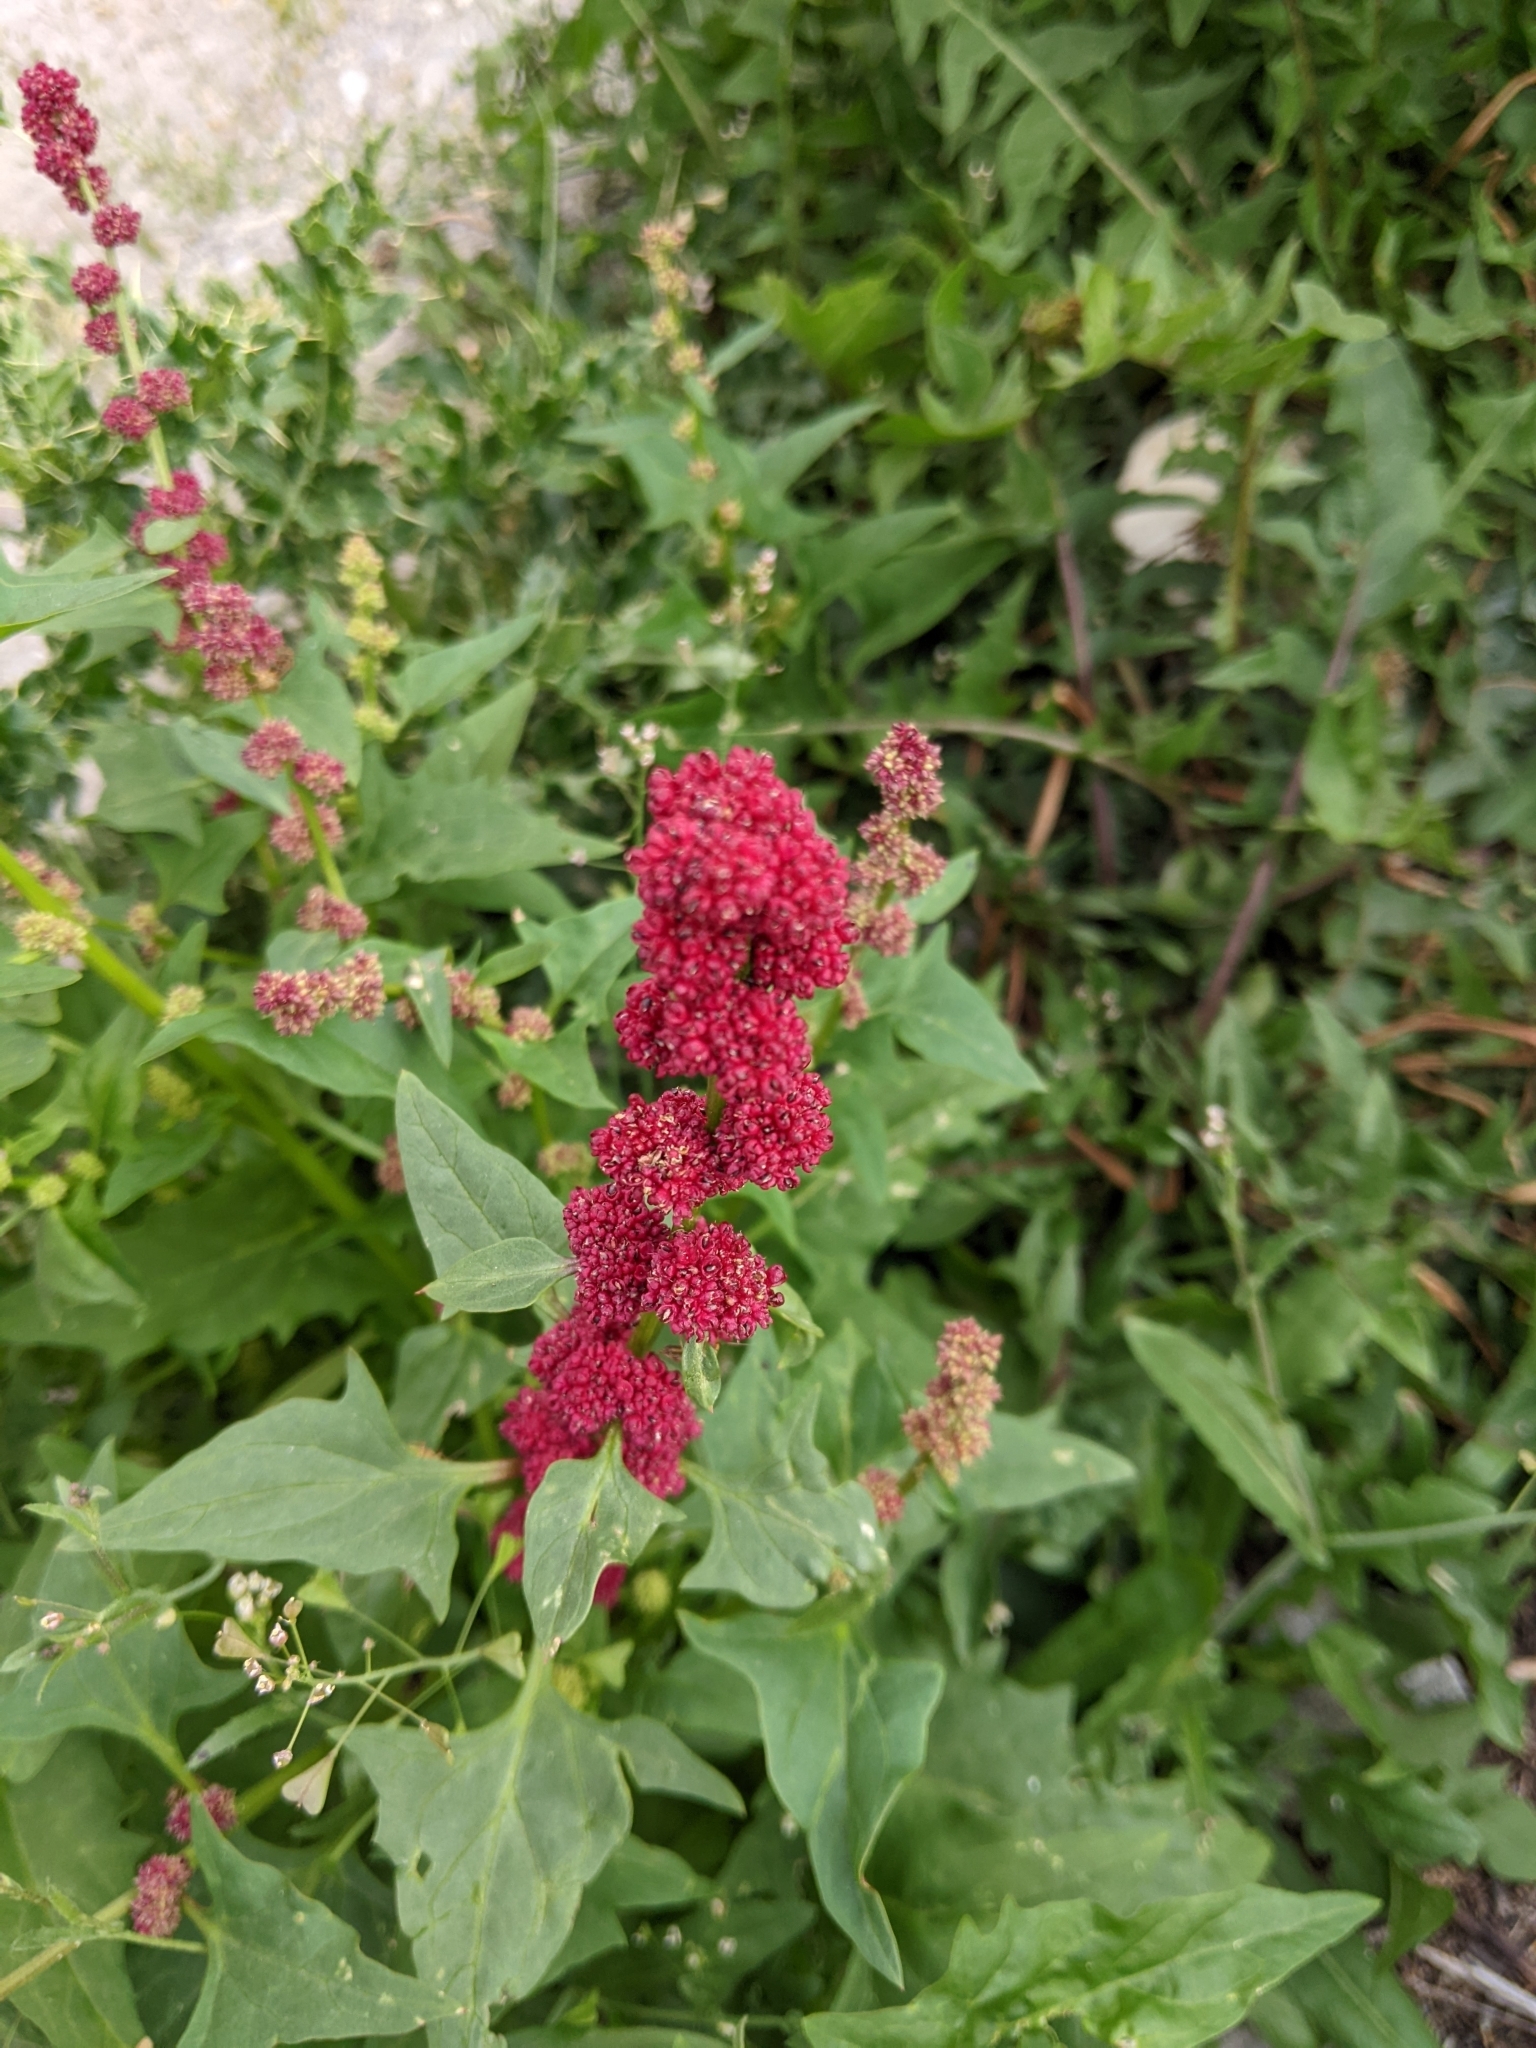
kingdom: Plantae
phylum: Tracheophyta
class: Magnoliopsida
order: Caryophyllales
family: Amaranthaceae
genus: Blitum
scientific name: Blitum capitatum
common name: Strawberry-blight
